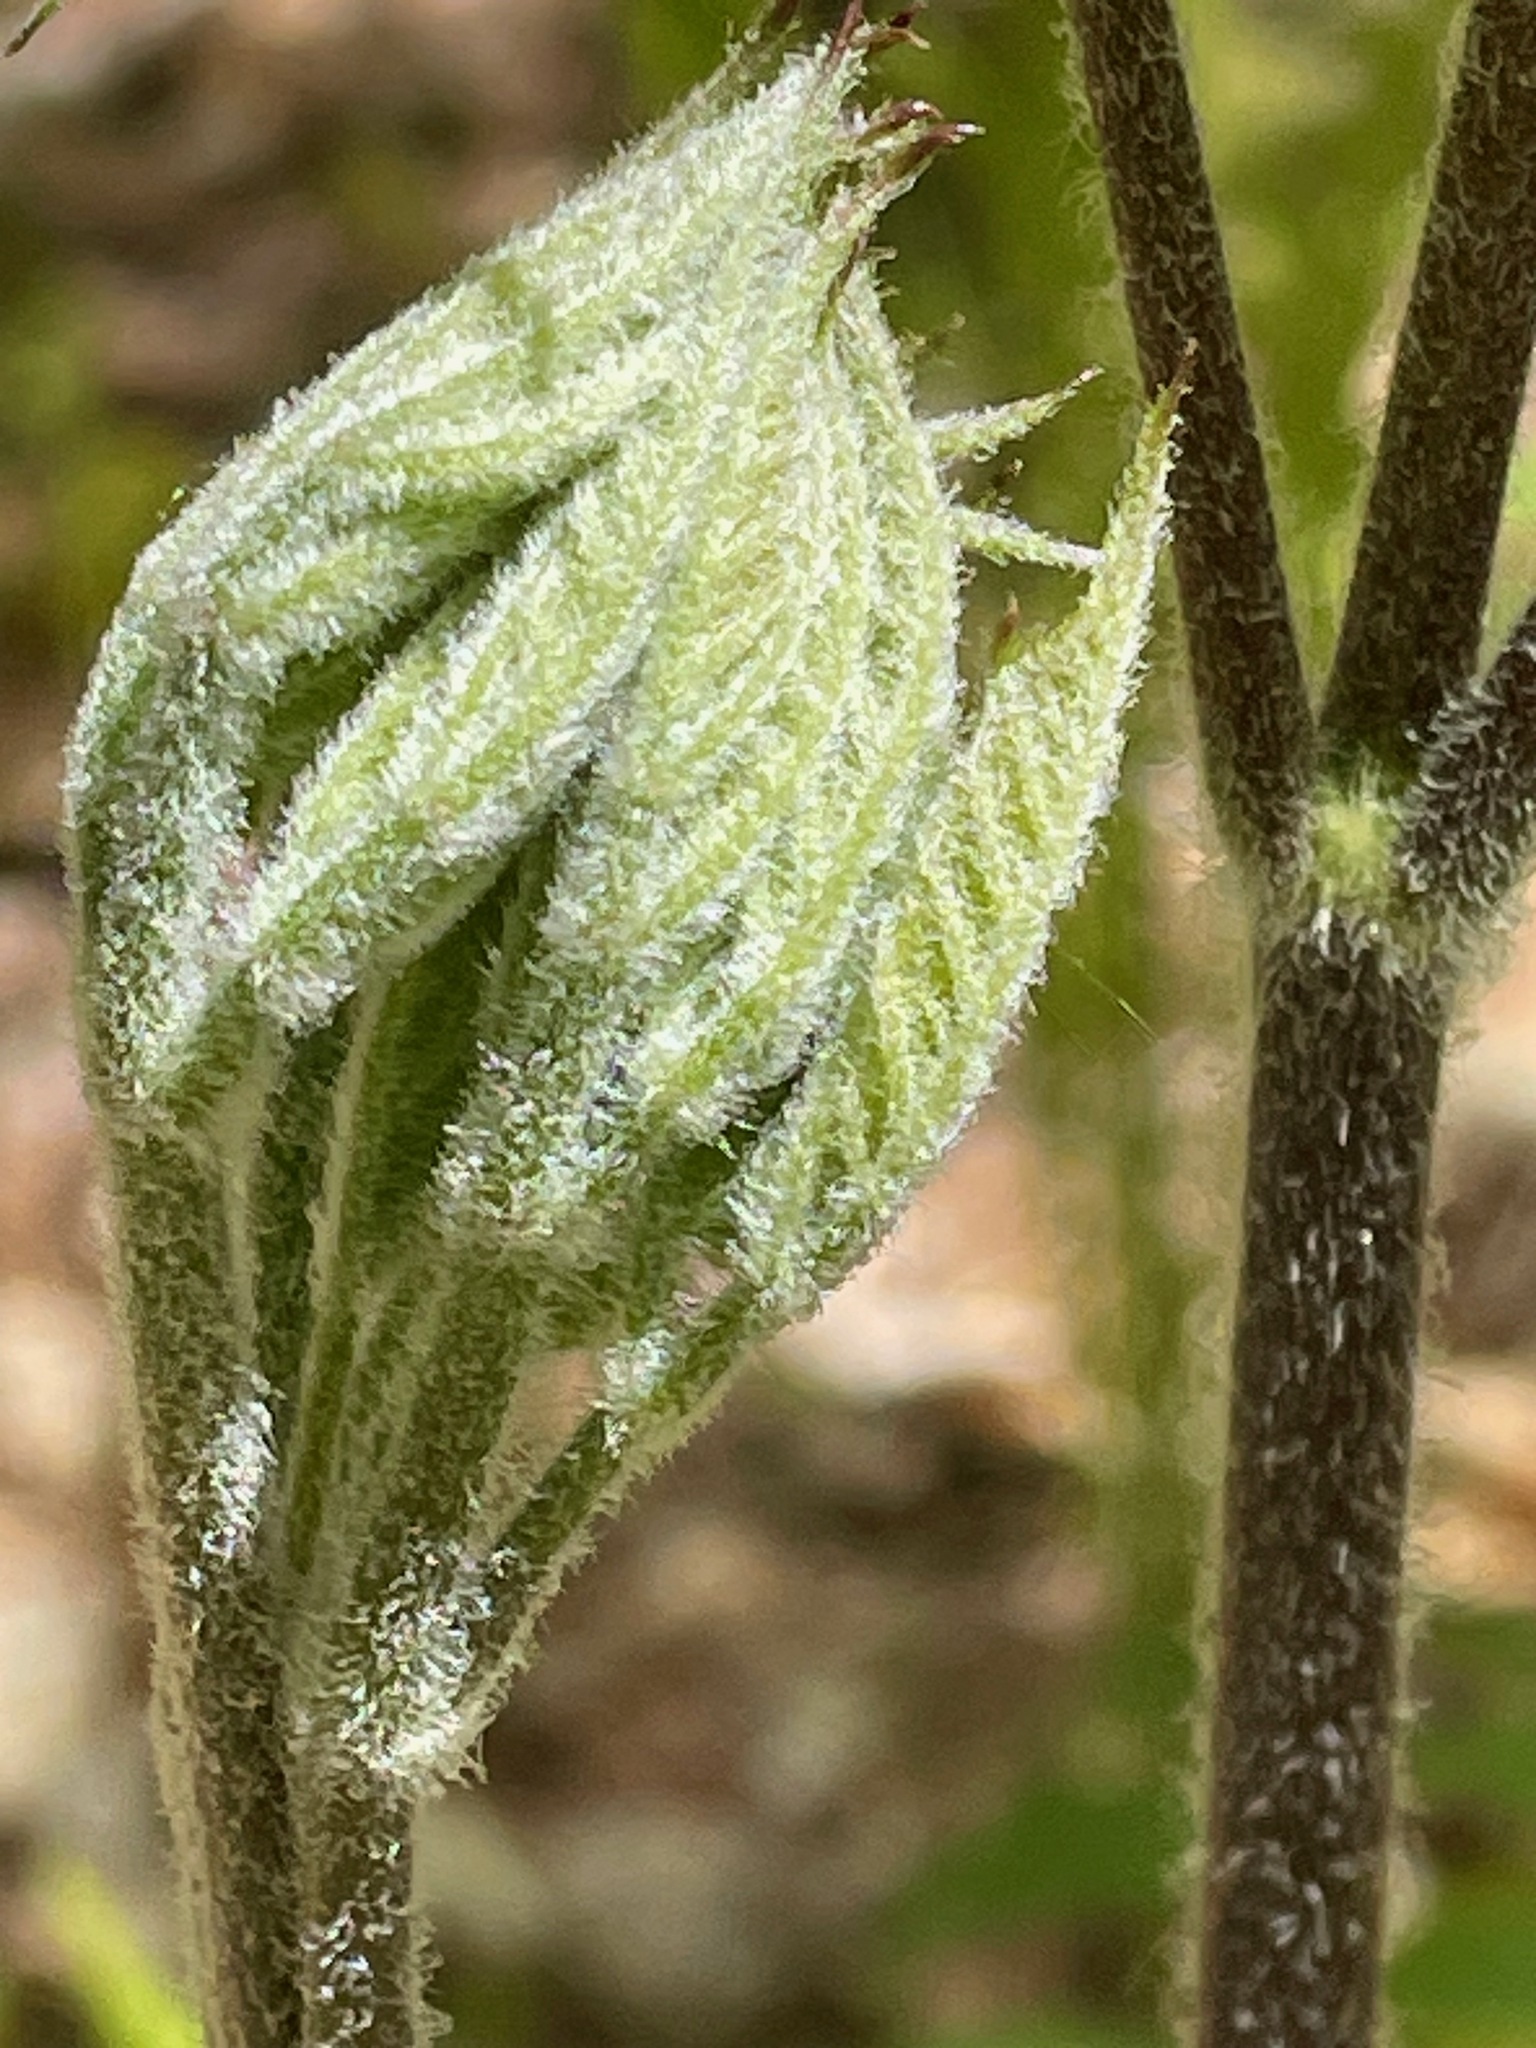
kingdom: Plantae
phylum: Tracheophyta
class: Magnoliopsida
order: Apiales
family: Araliaceae
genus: Aralia
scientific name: Aralia racemosa
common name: American-spikenard
